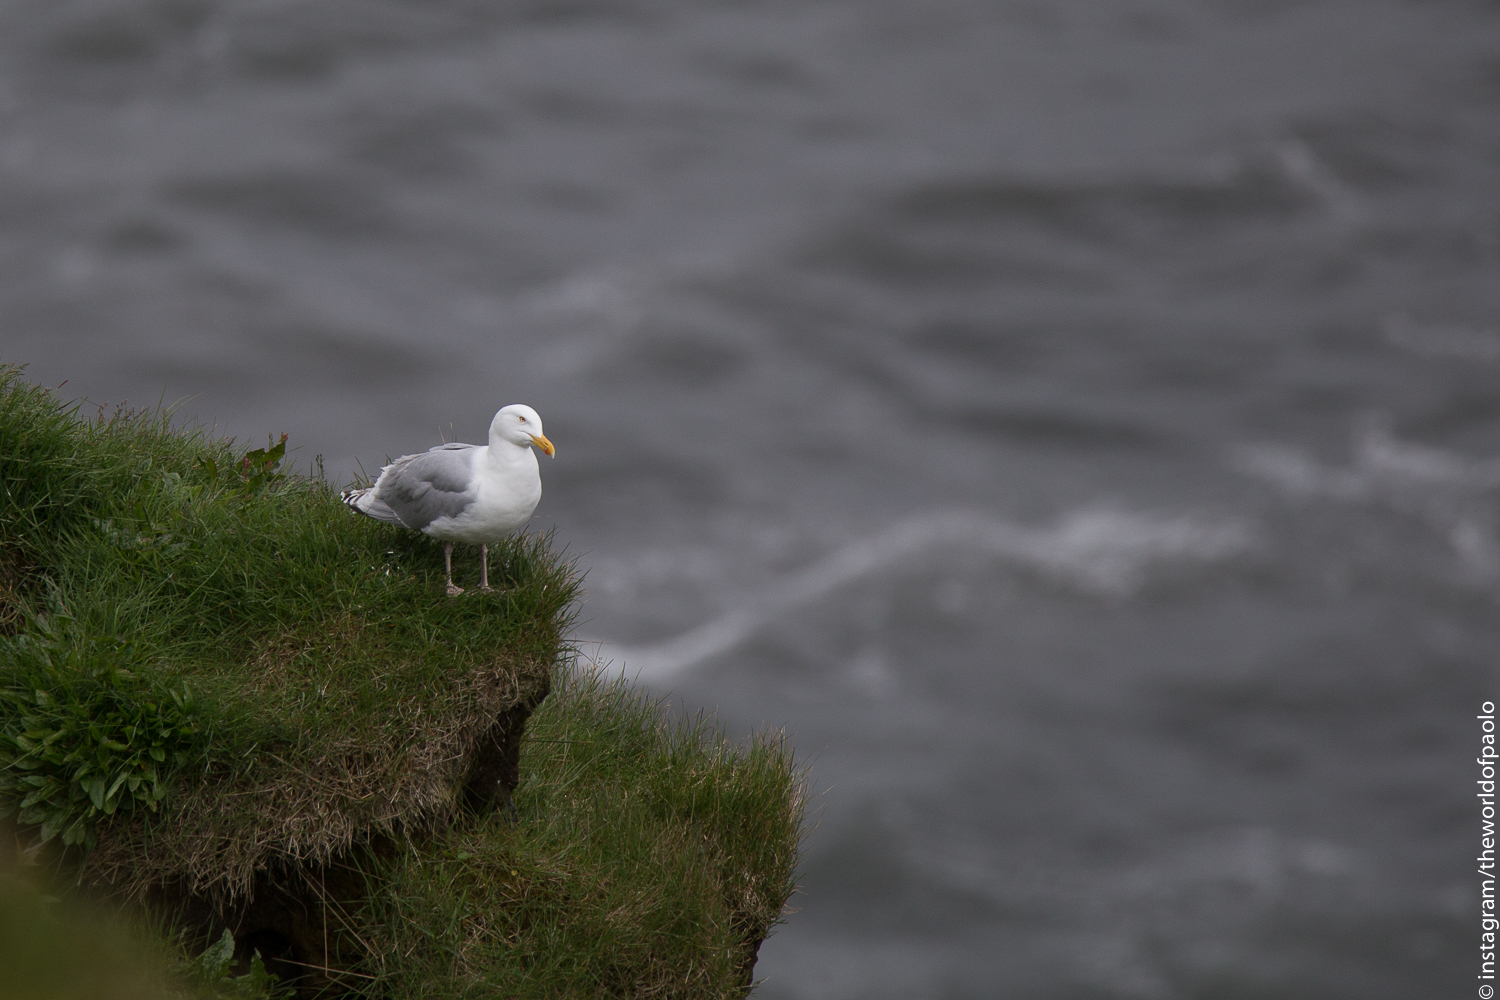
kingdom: Animalia
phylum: Chordata
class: Aves
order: Charadriiformes
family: Laridae
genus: Larus
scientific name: Larus argentatus
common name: Herring gull
